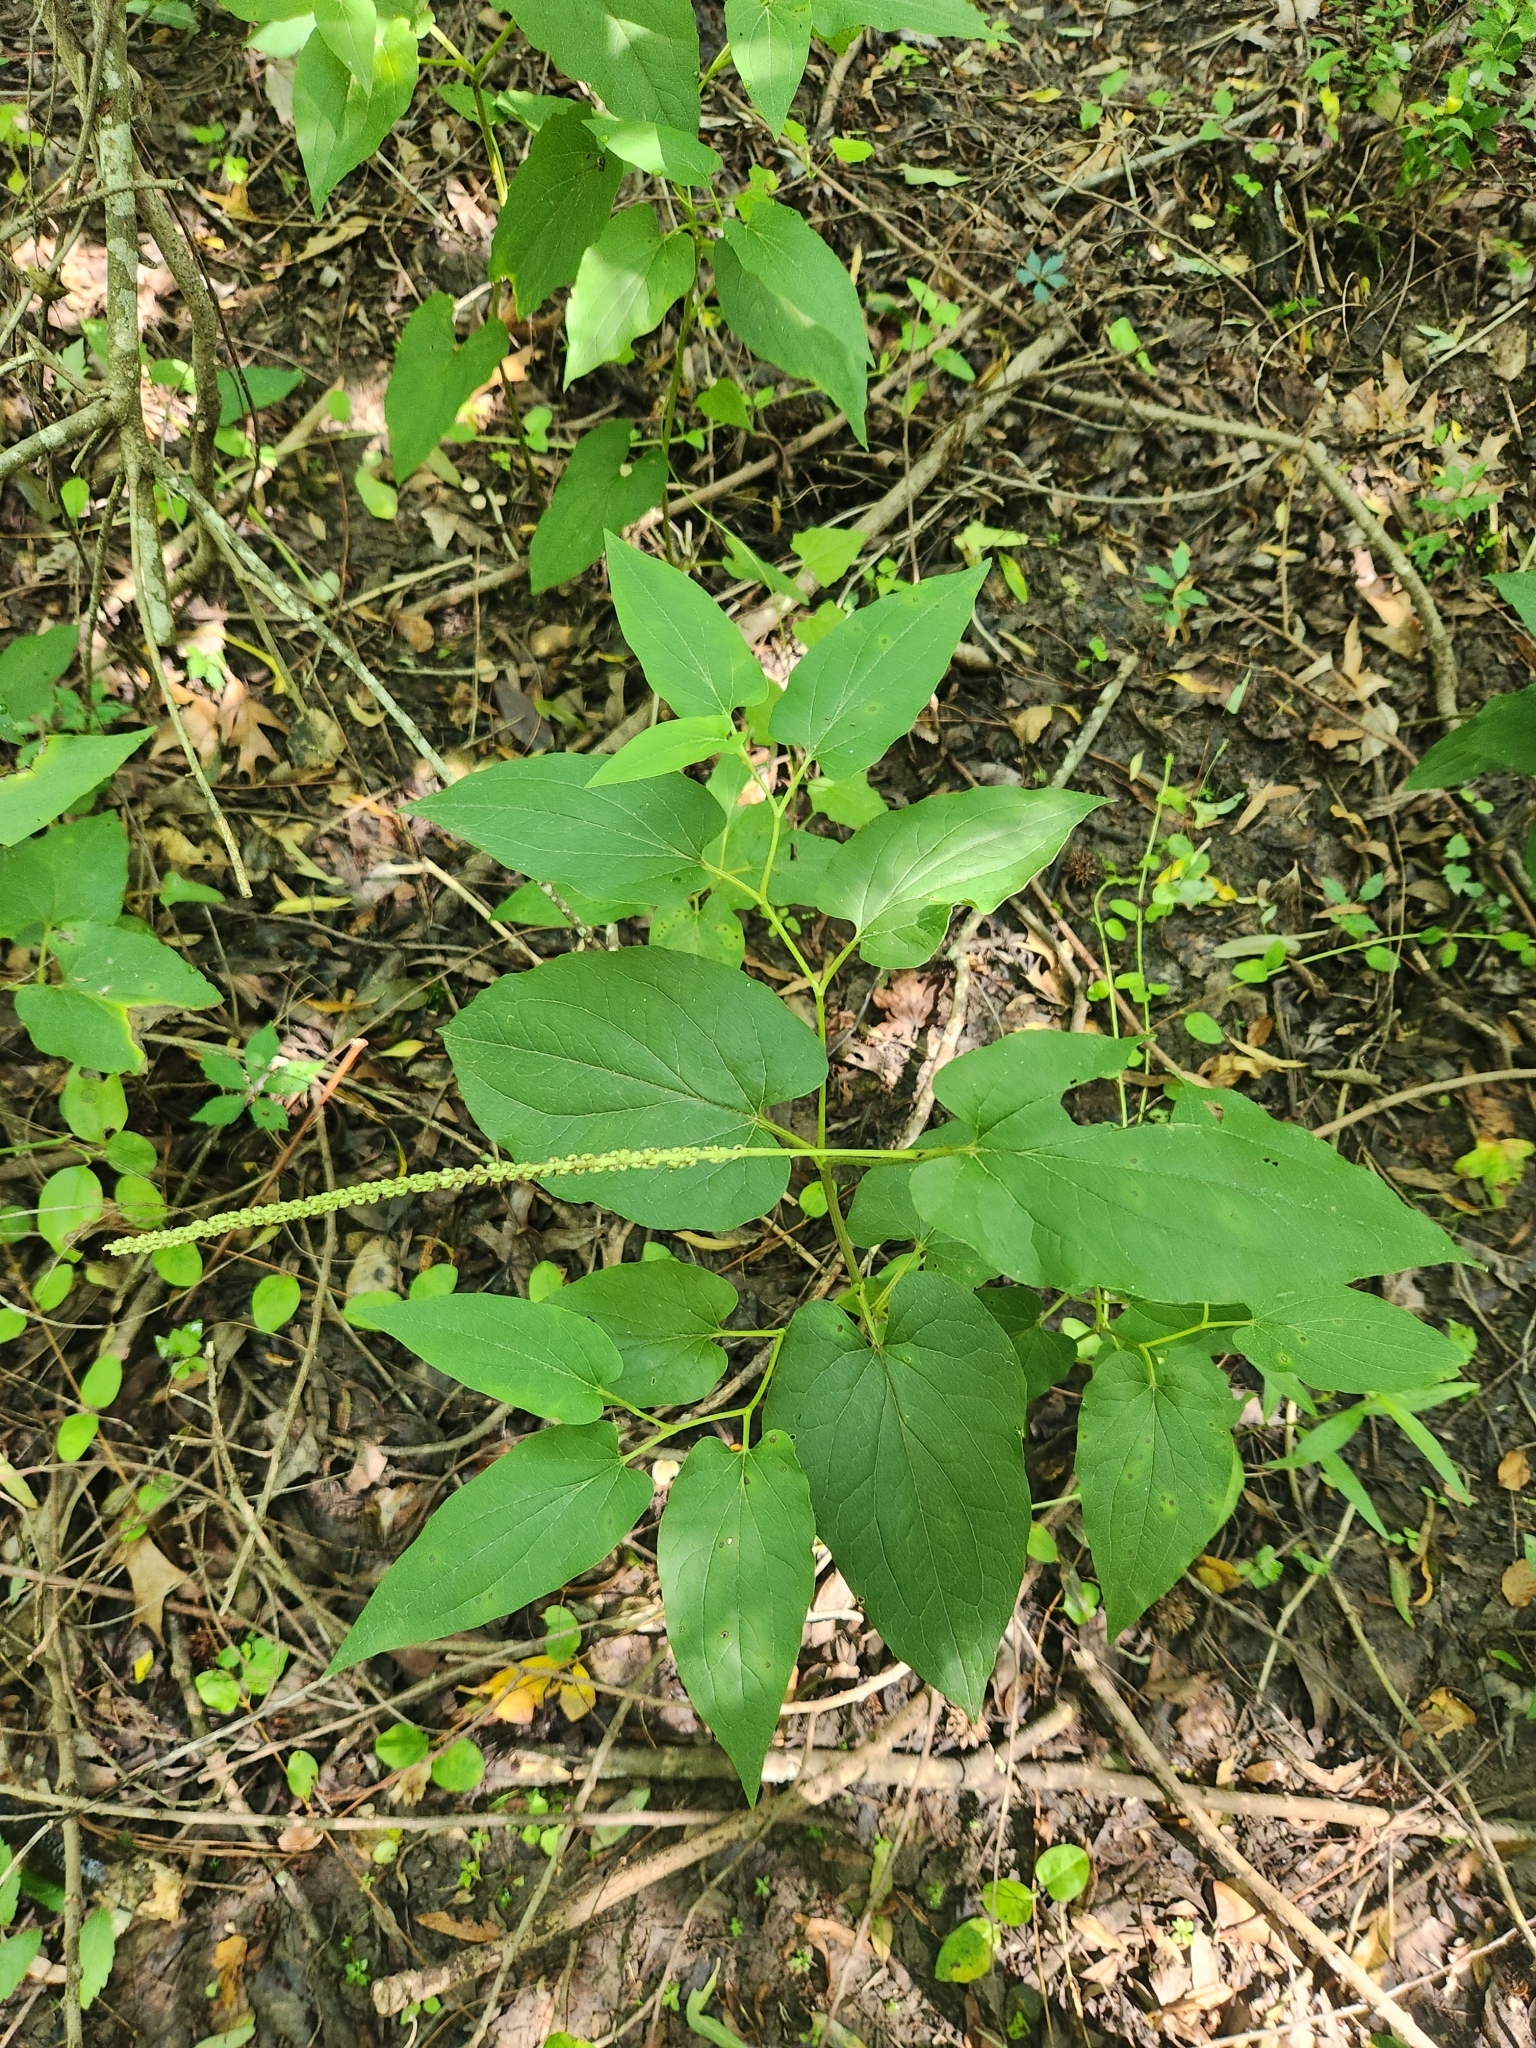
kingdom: Plantae
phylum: Tracheophyta
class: Magnoliopsida
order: Piperales
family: Saururaceae
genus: Saururus
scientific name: Saururus cernuus
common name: Lizard's-tail
